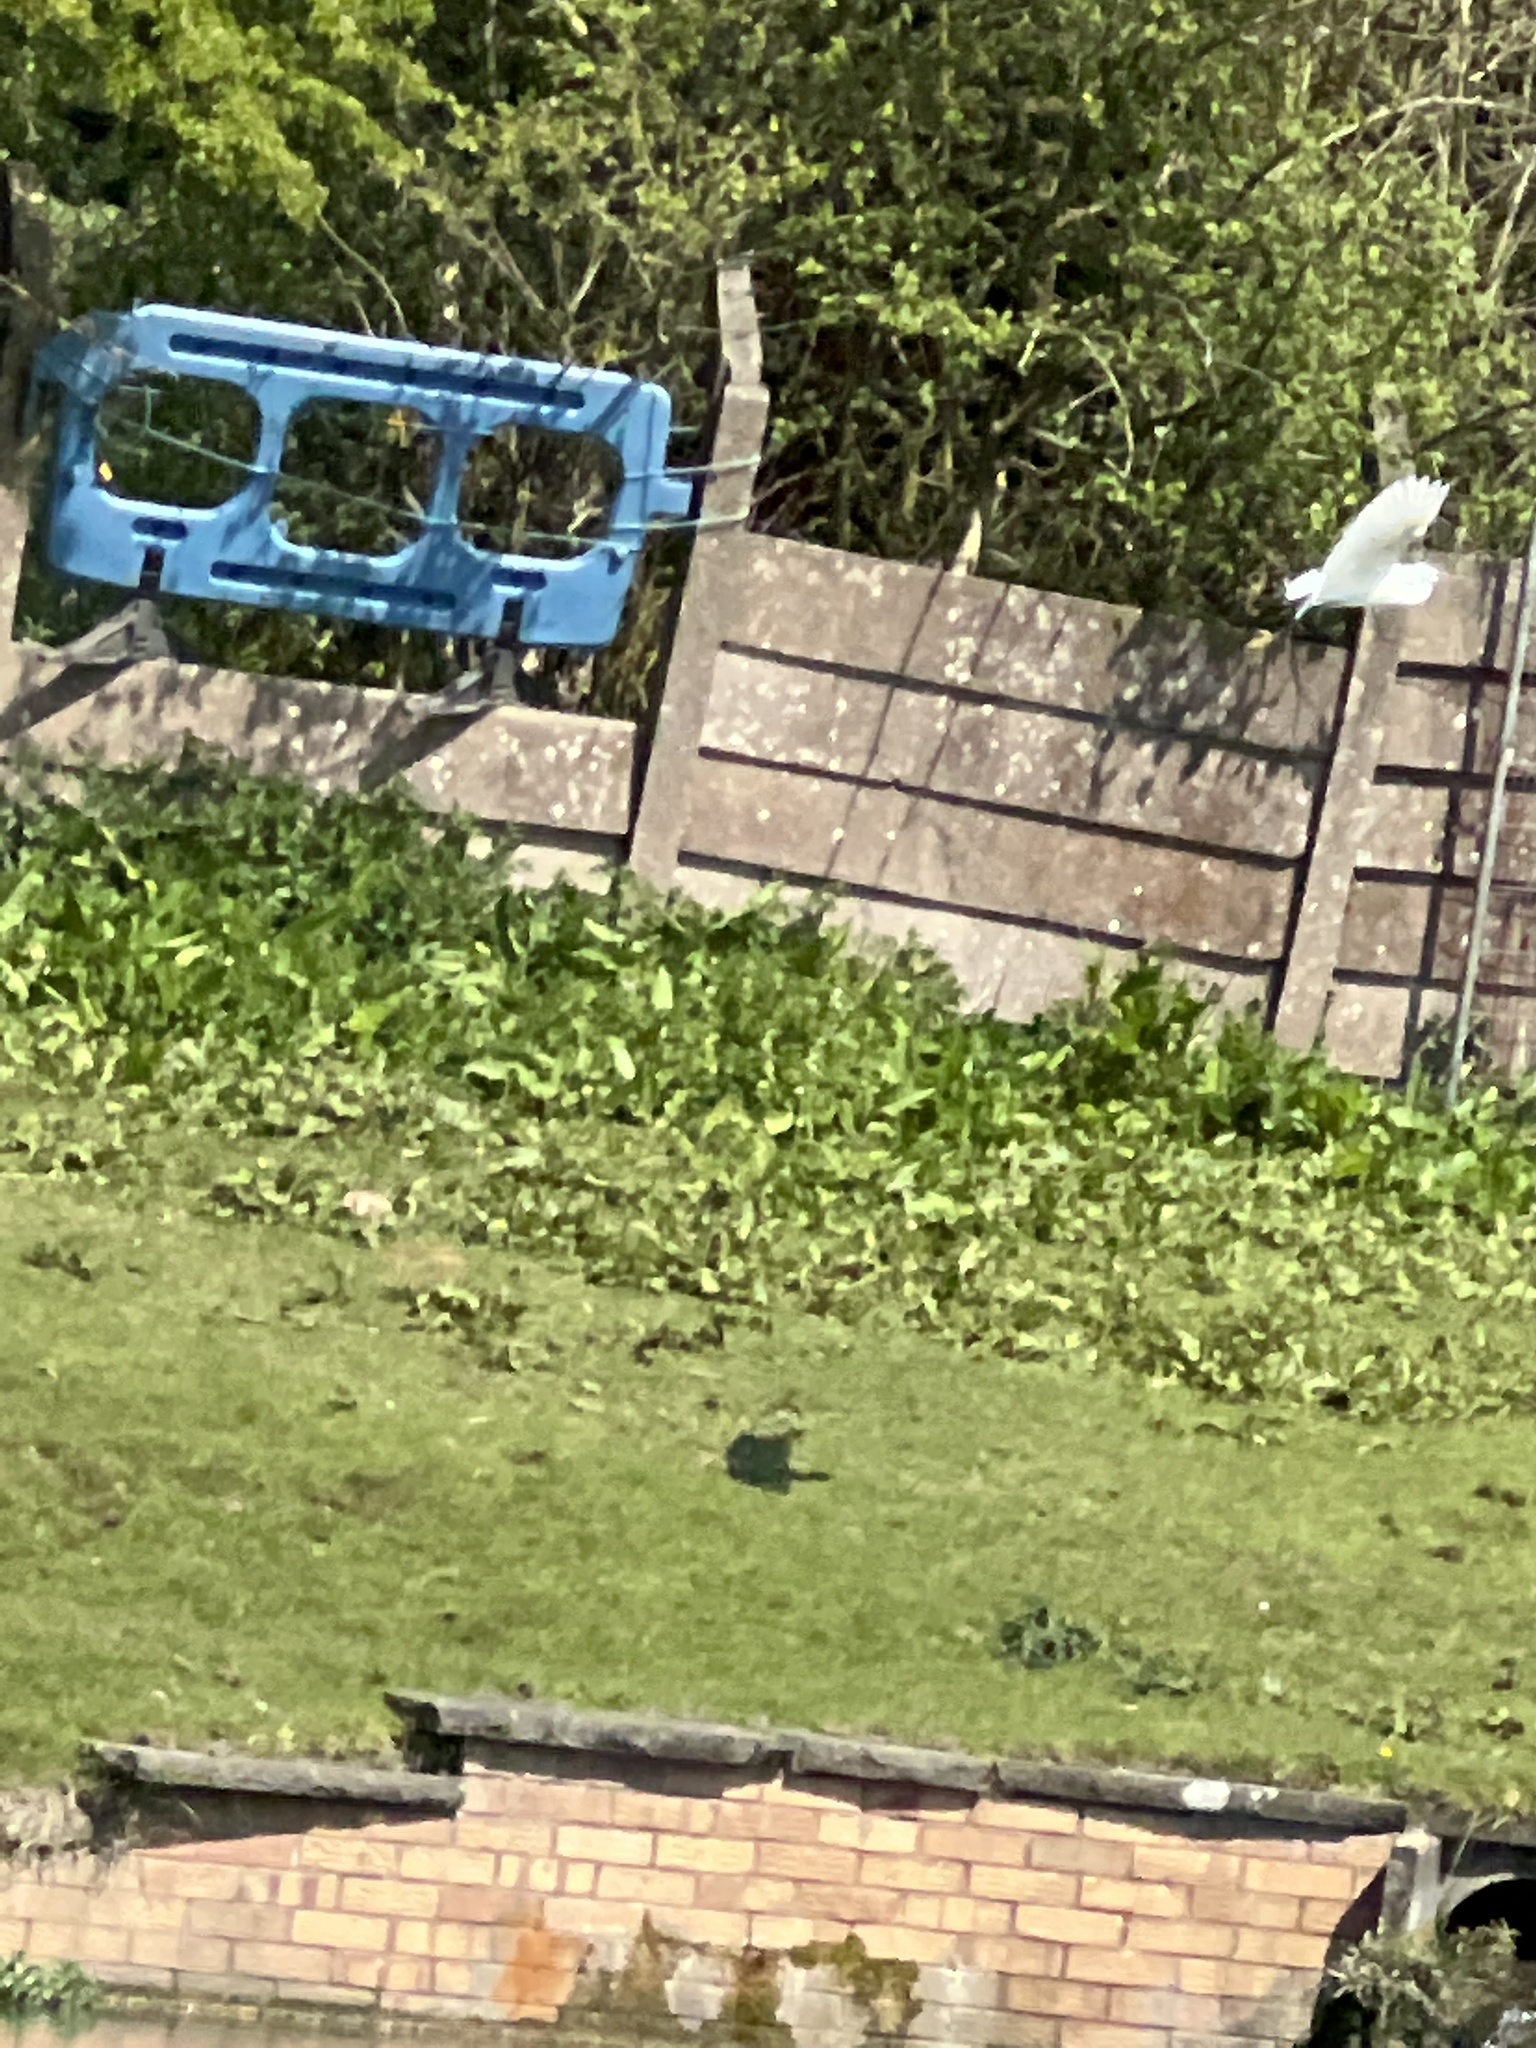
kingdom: Animalia
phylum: Chordata
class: Aves
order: Pelecaniformes
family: Ardeidae
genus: Egretta
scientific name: Egretta garzetta
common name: Little egret
